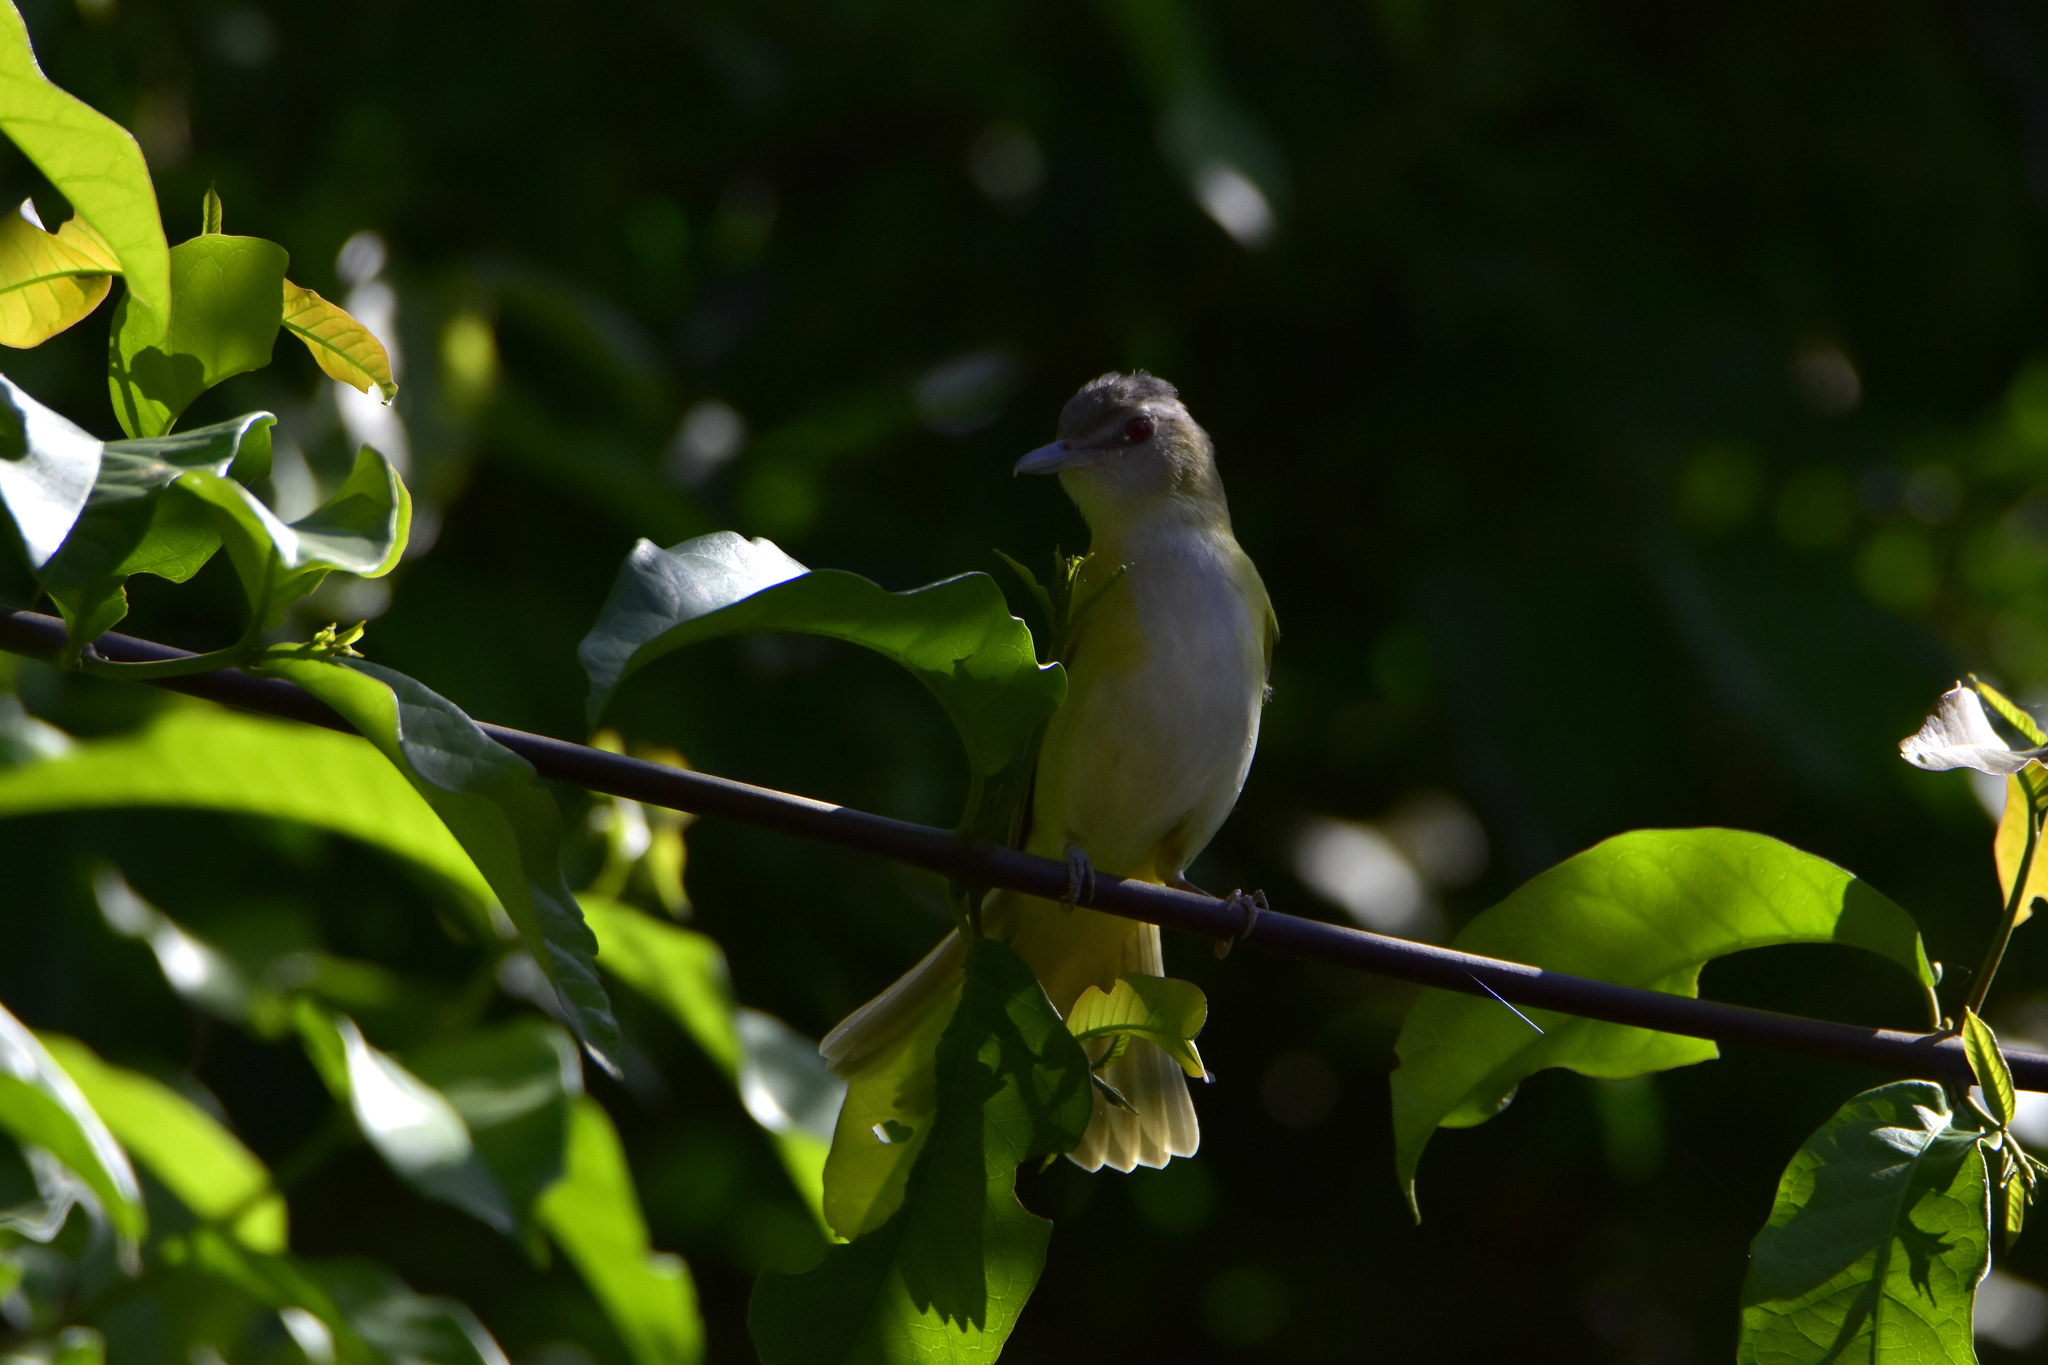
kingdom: Animalia
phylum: Chordata
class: Aves
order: Passeriformes
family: Vireonidae
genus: Vireo
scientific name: Vireo flavoviridis
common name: Yellow-green vireo
